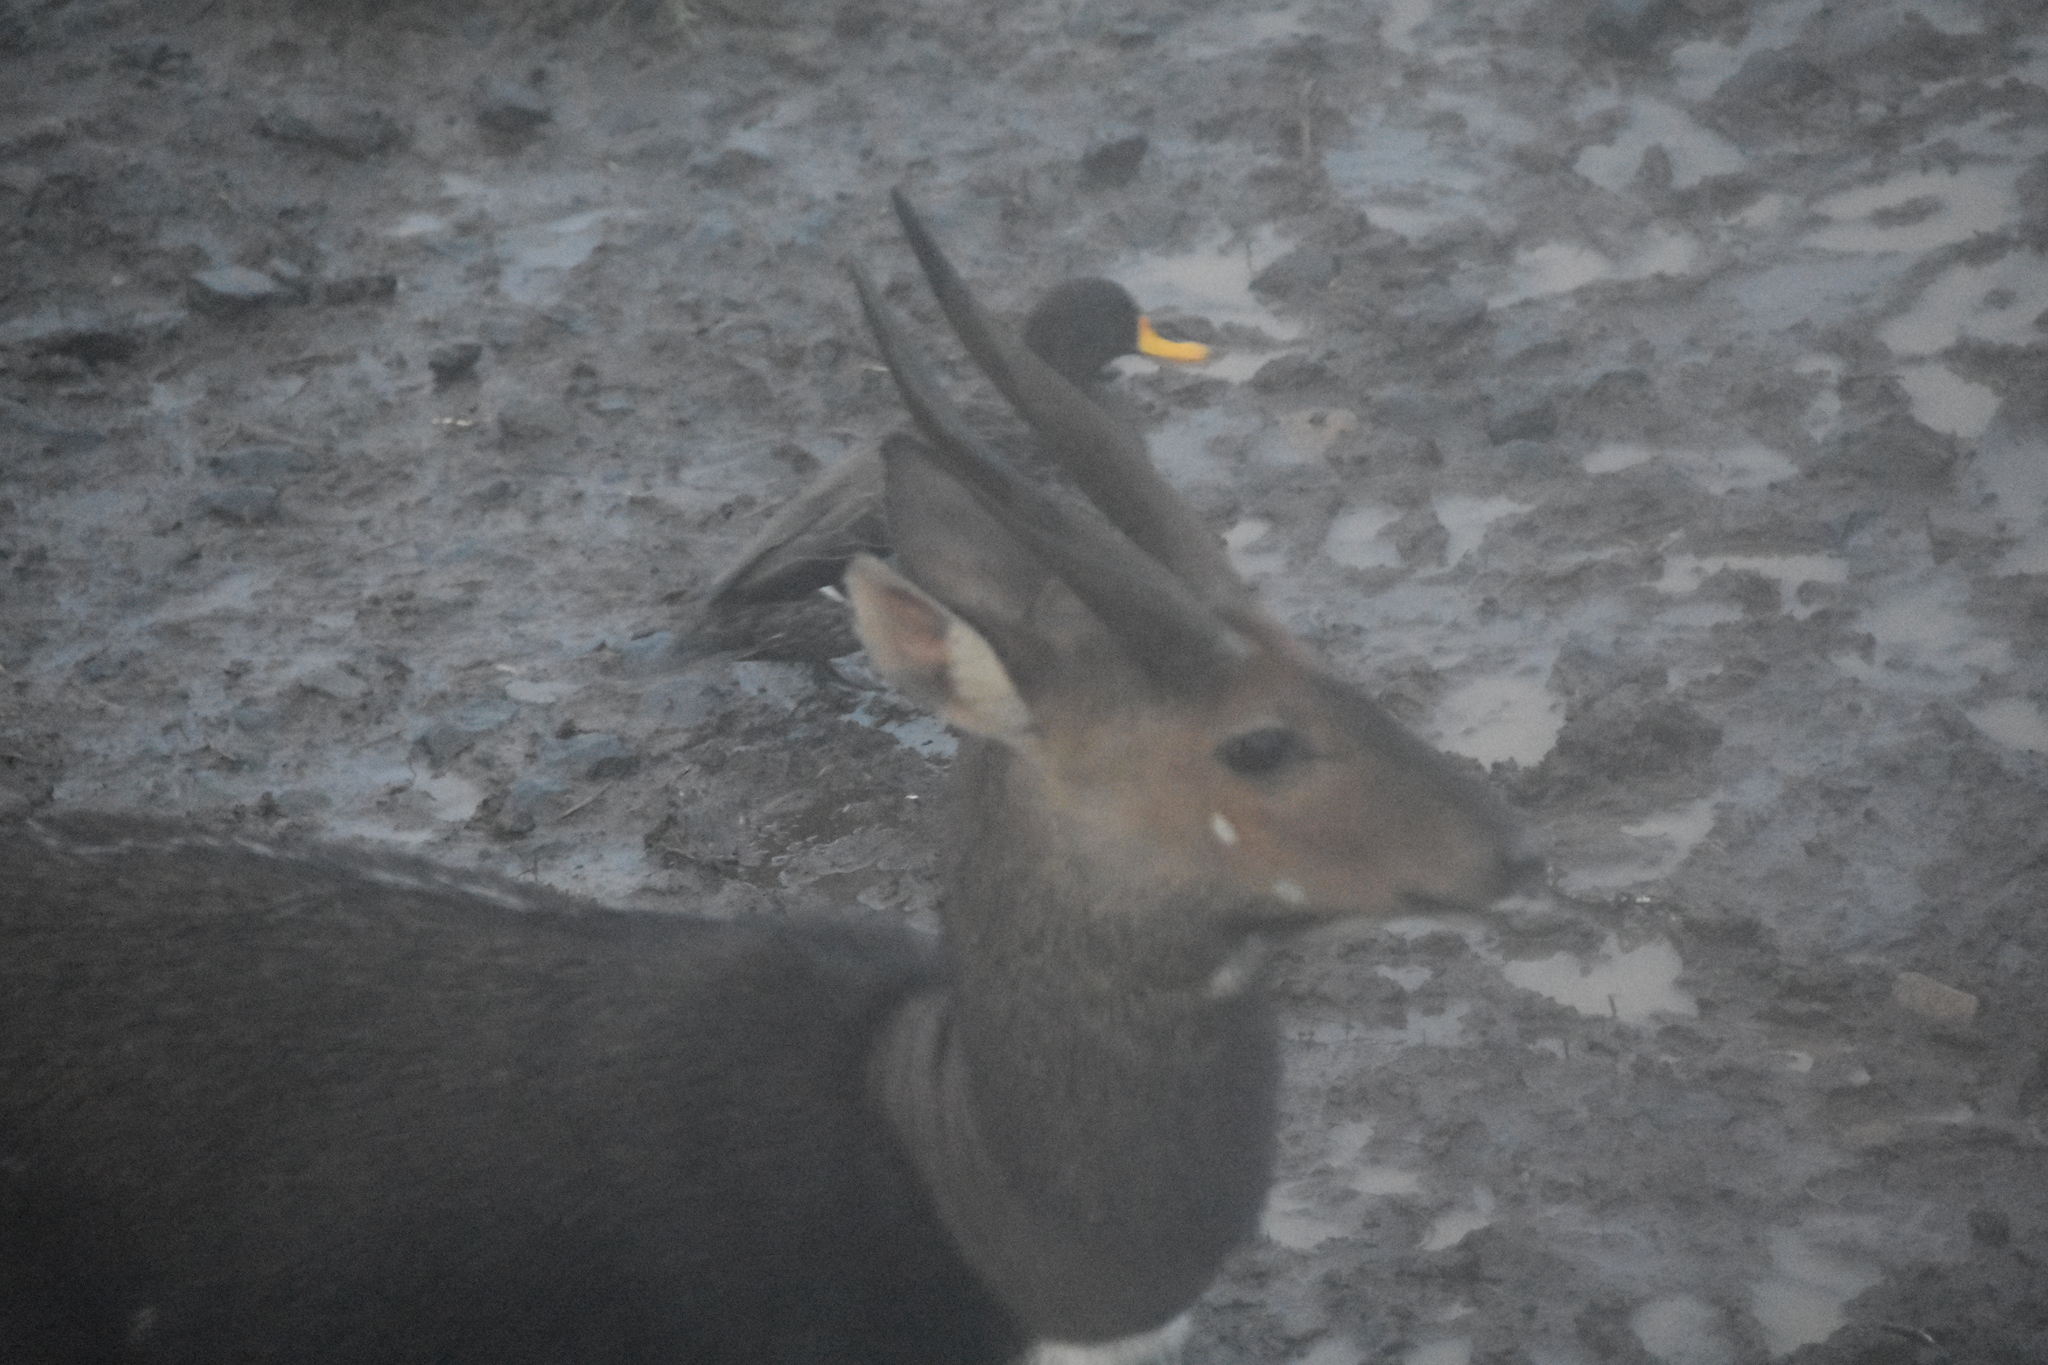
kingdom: Animalia
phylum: Chordata
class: Aves
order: Anseriformes
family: Anatidae
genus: Anas
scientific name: Anas undulata
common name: Yellow-billed duck
